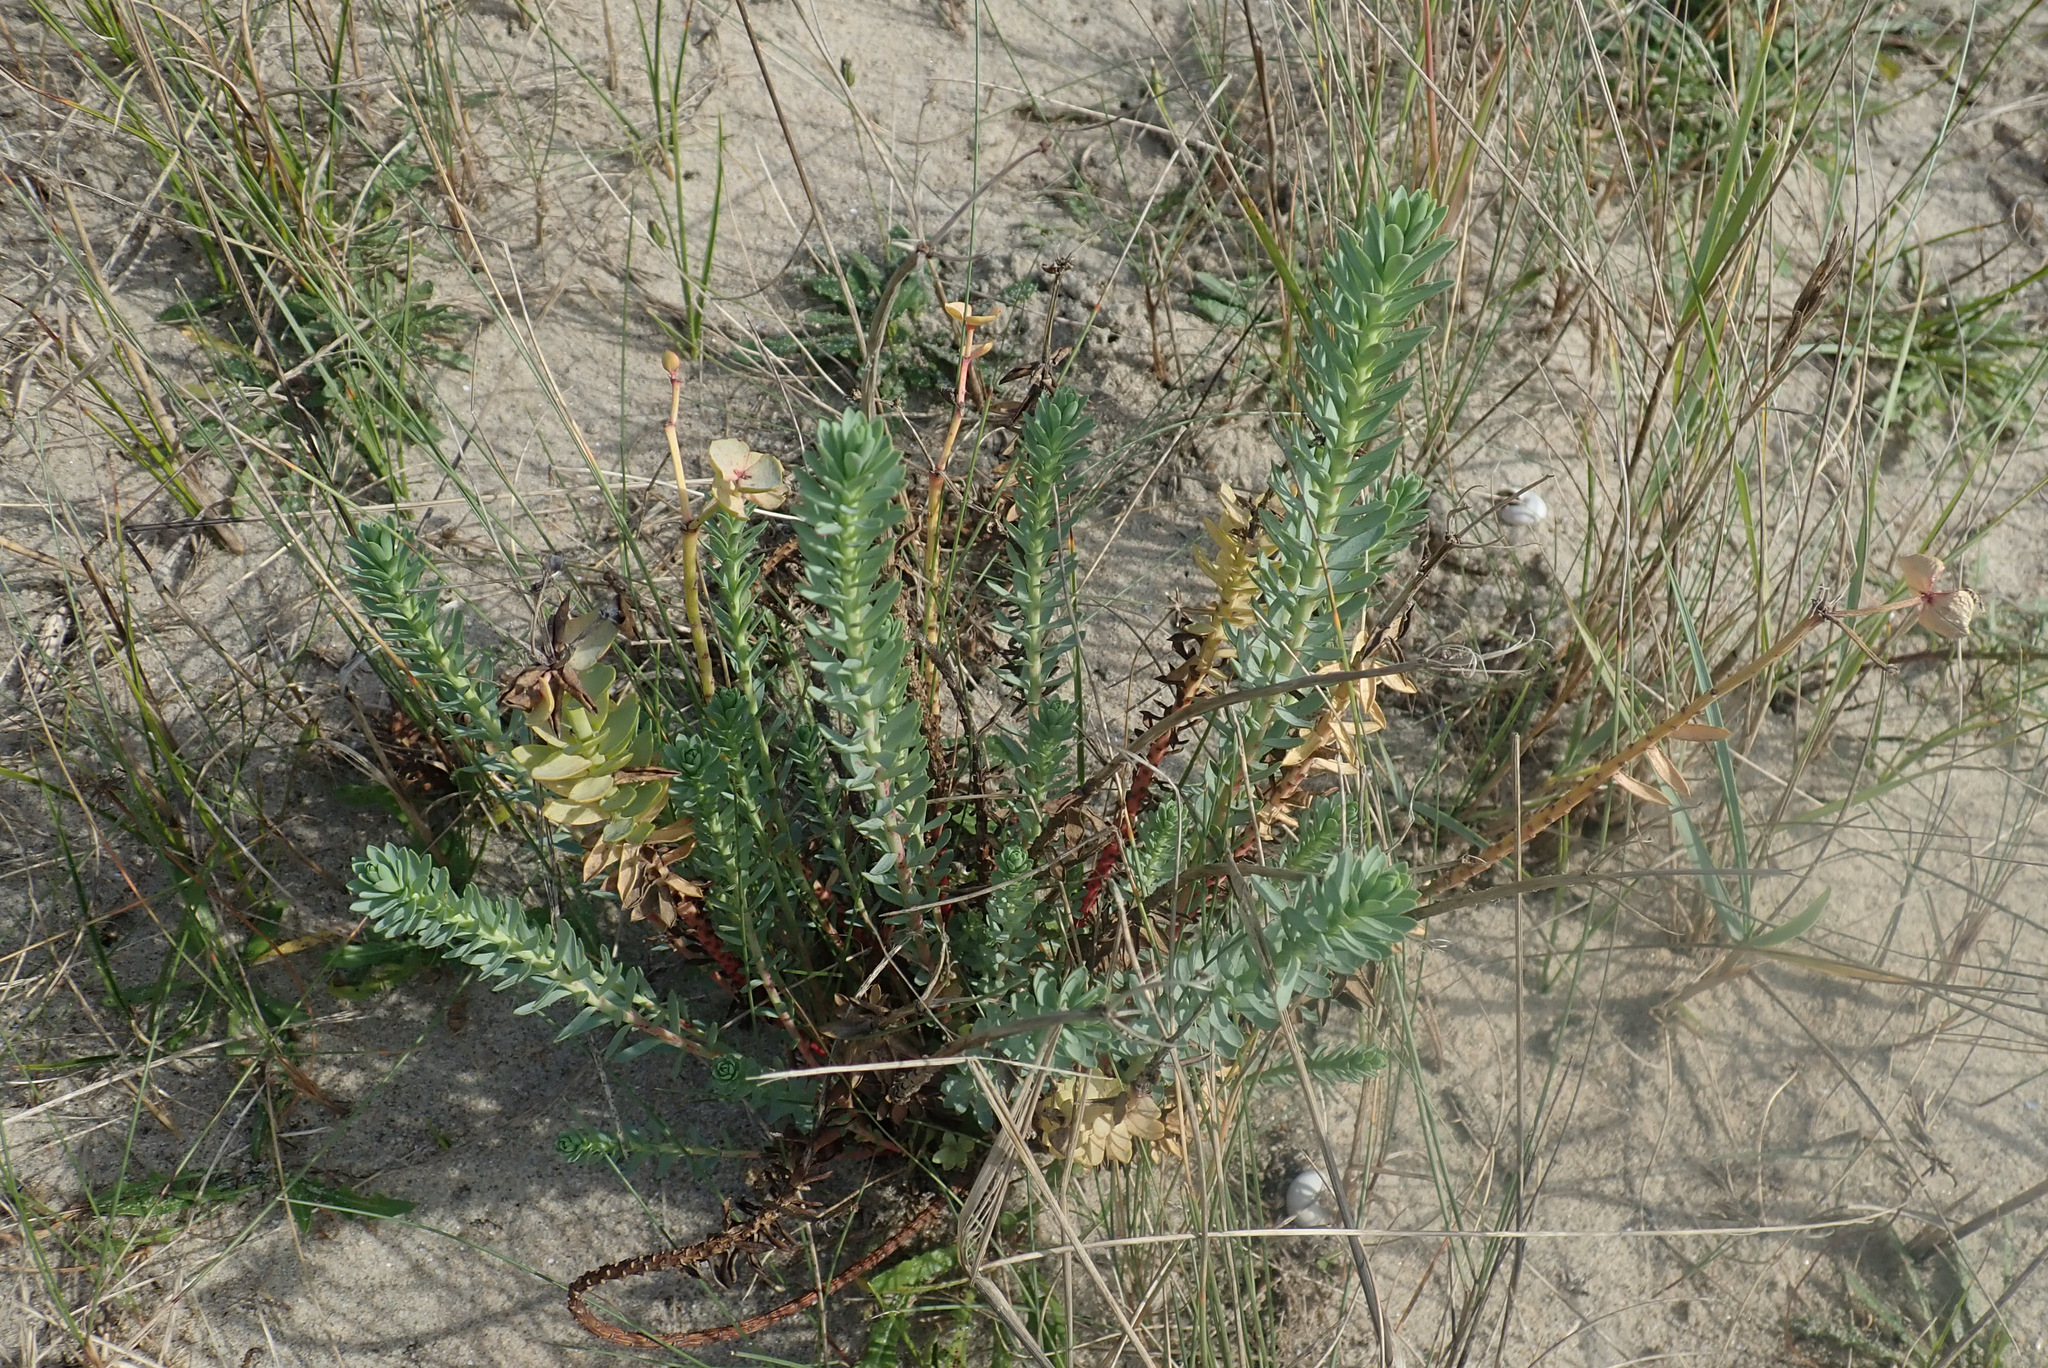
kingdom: Plantae
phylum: Tracheophyta
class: Magnoliopsida
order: Malpighiales
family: Euphorbiaceae
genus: Euphorbia
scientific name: Euphorbia paralias
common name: Sea spurge
